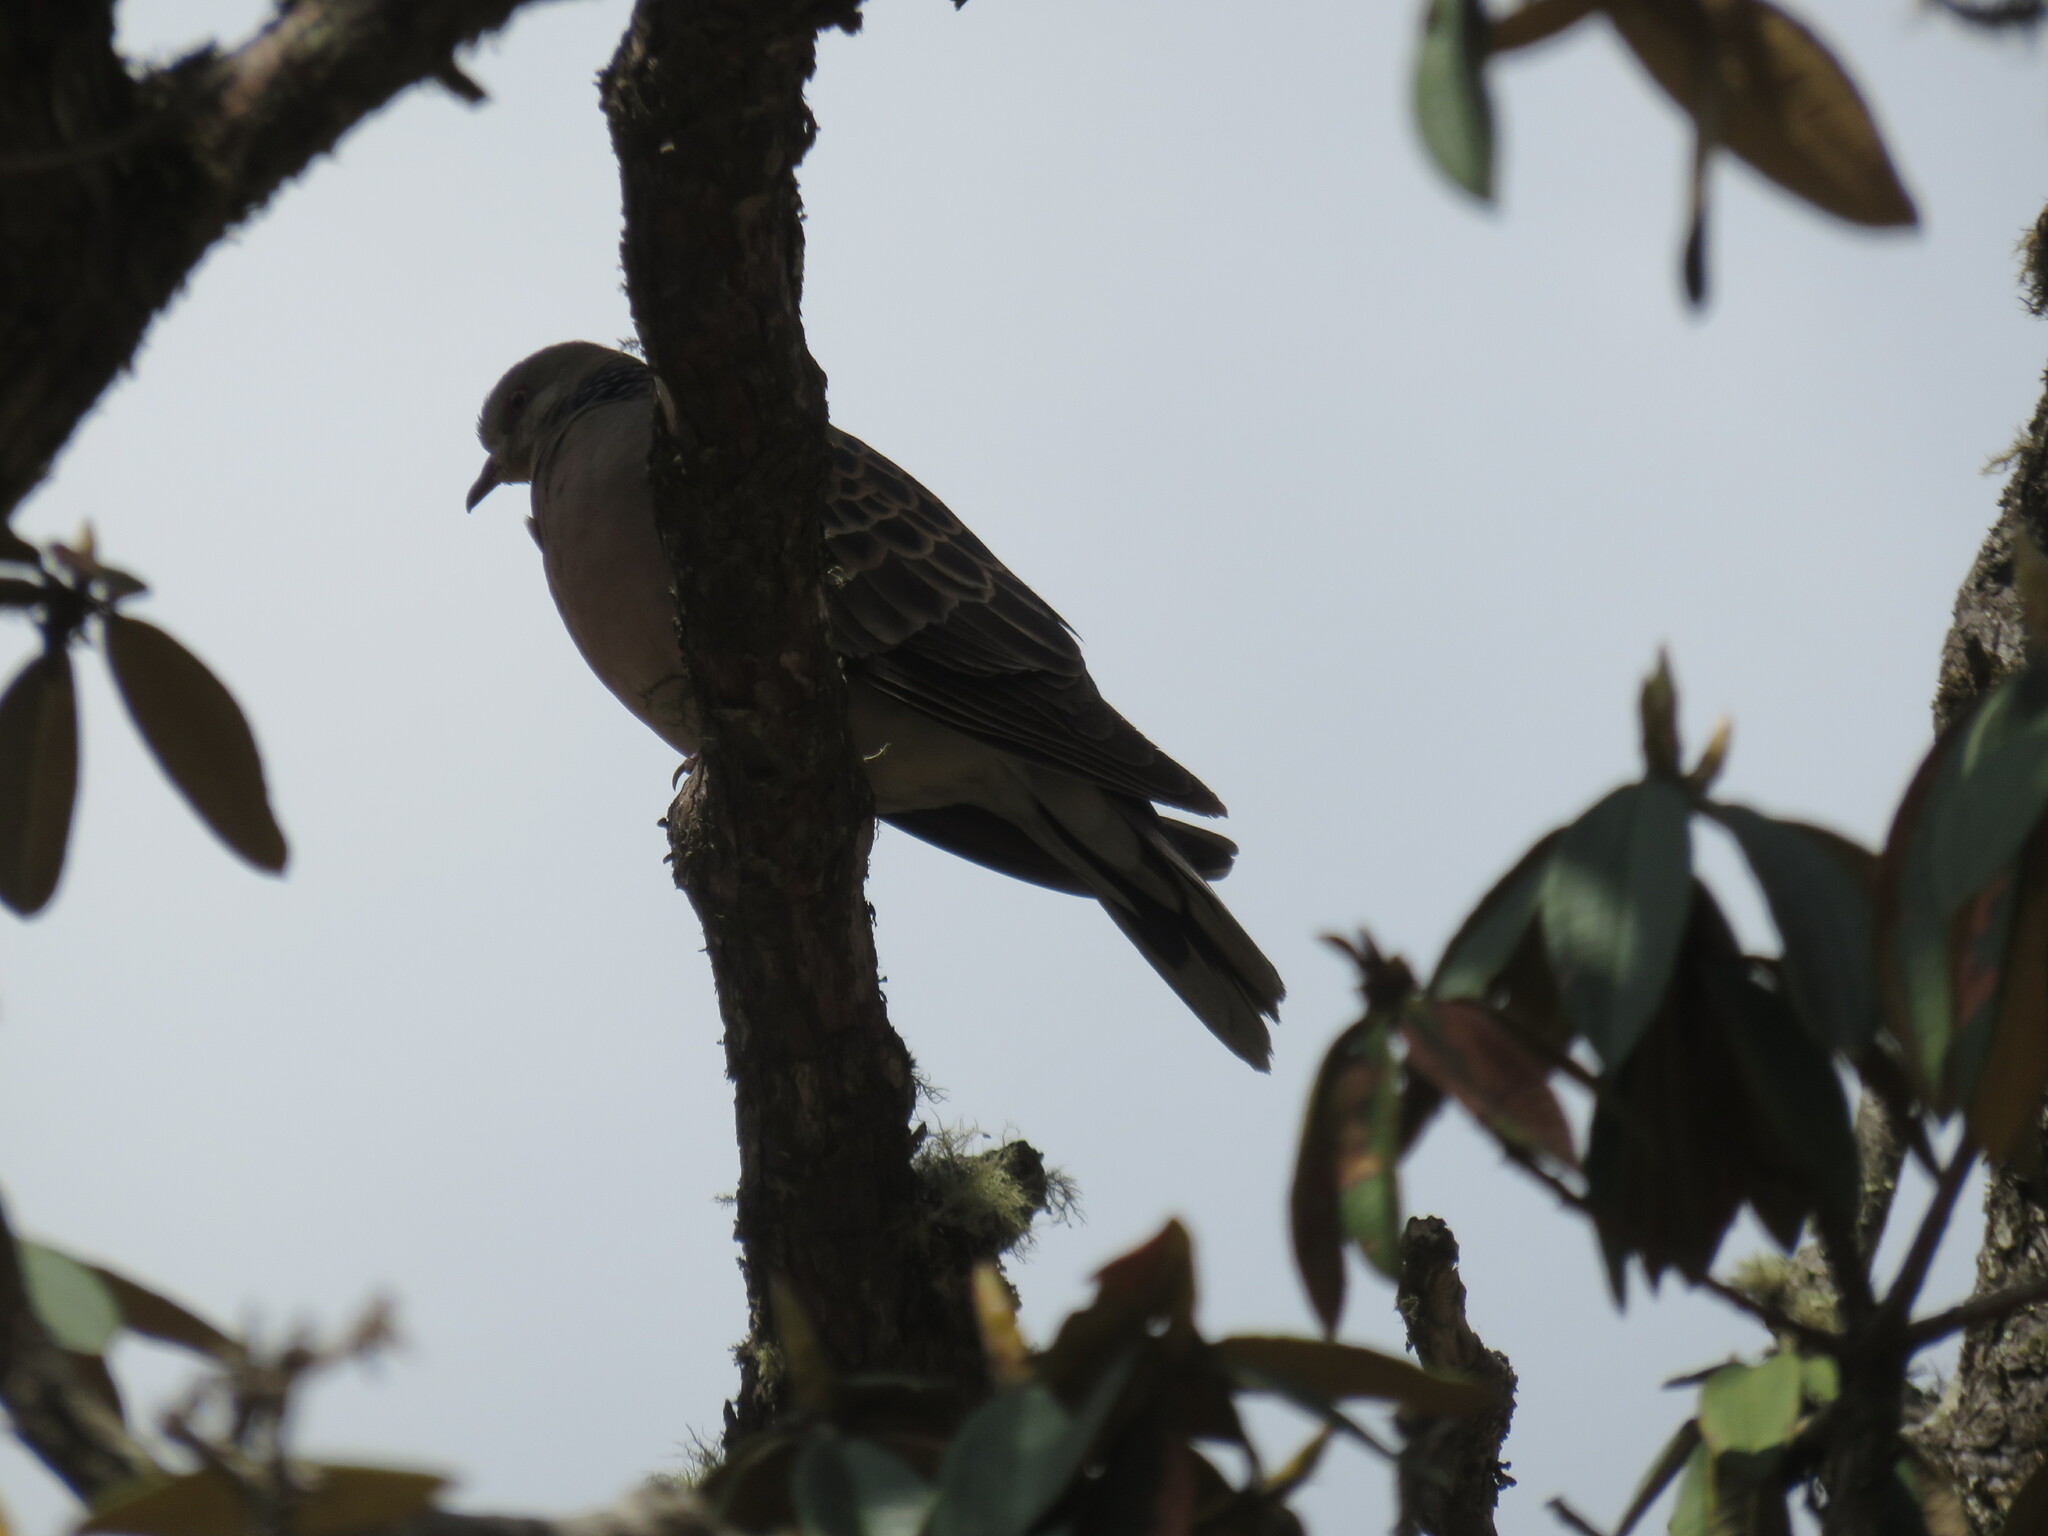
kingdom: Animalia
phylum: Chordata
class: Aves
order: Columbiformes
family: Columbidae
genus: Streptopelia
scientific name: Streptopelia orientalis
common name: Oriental turtle dove
